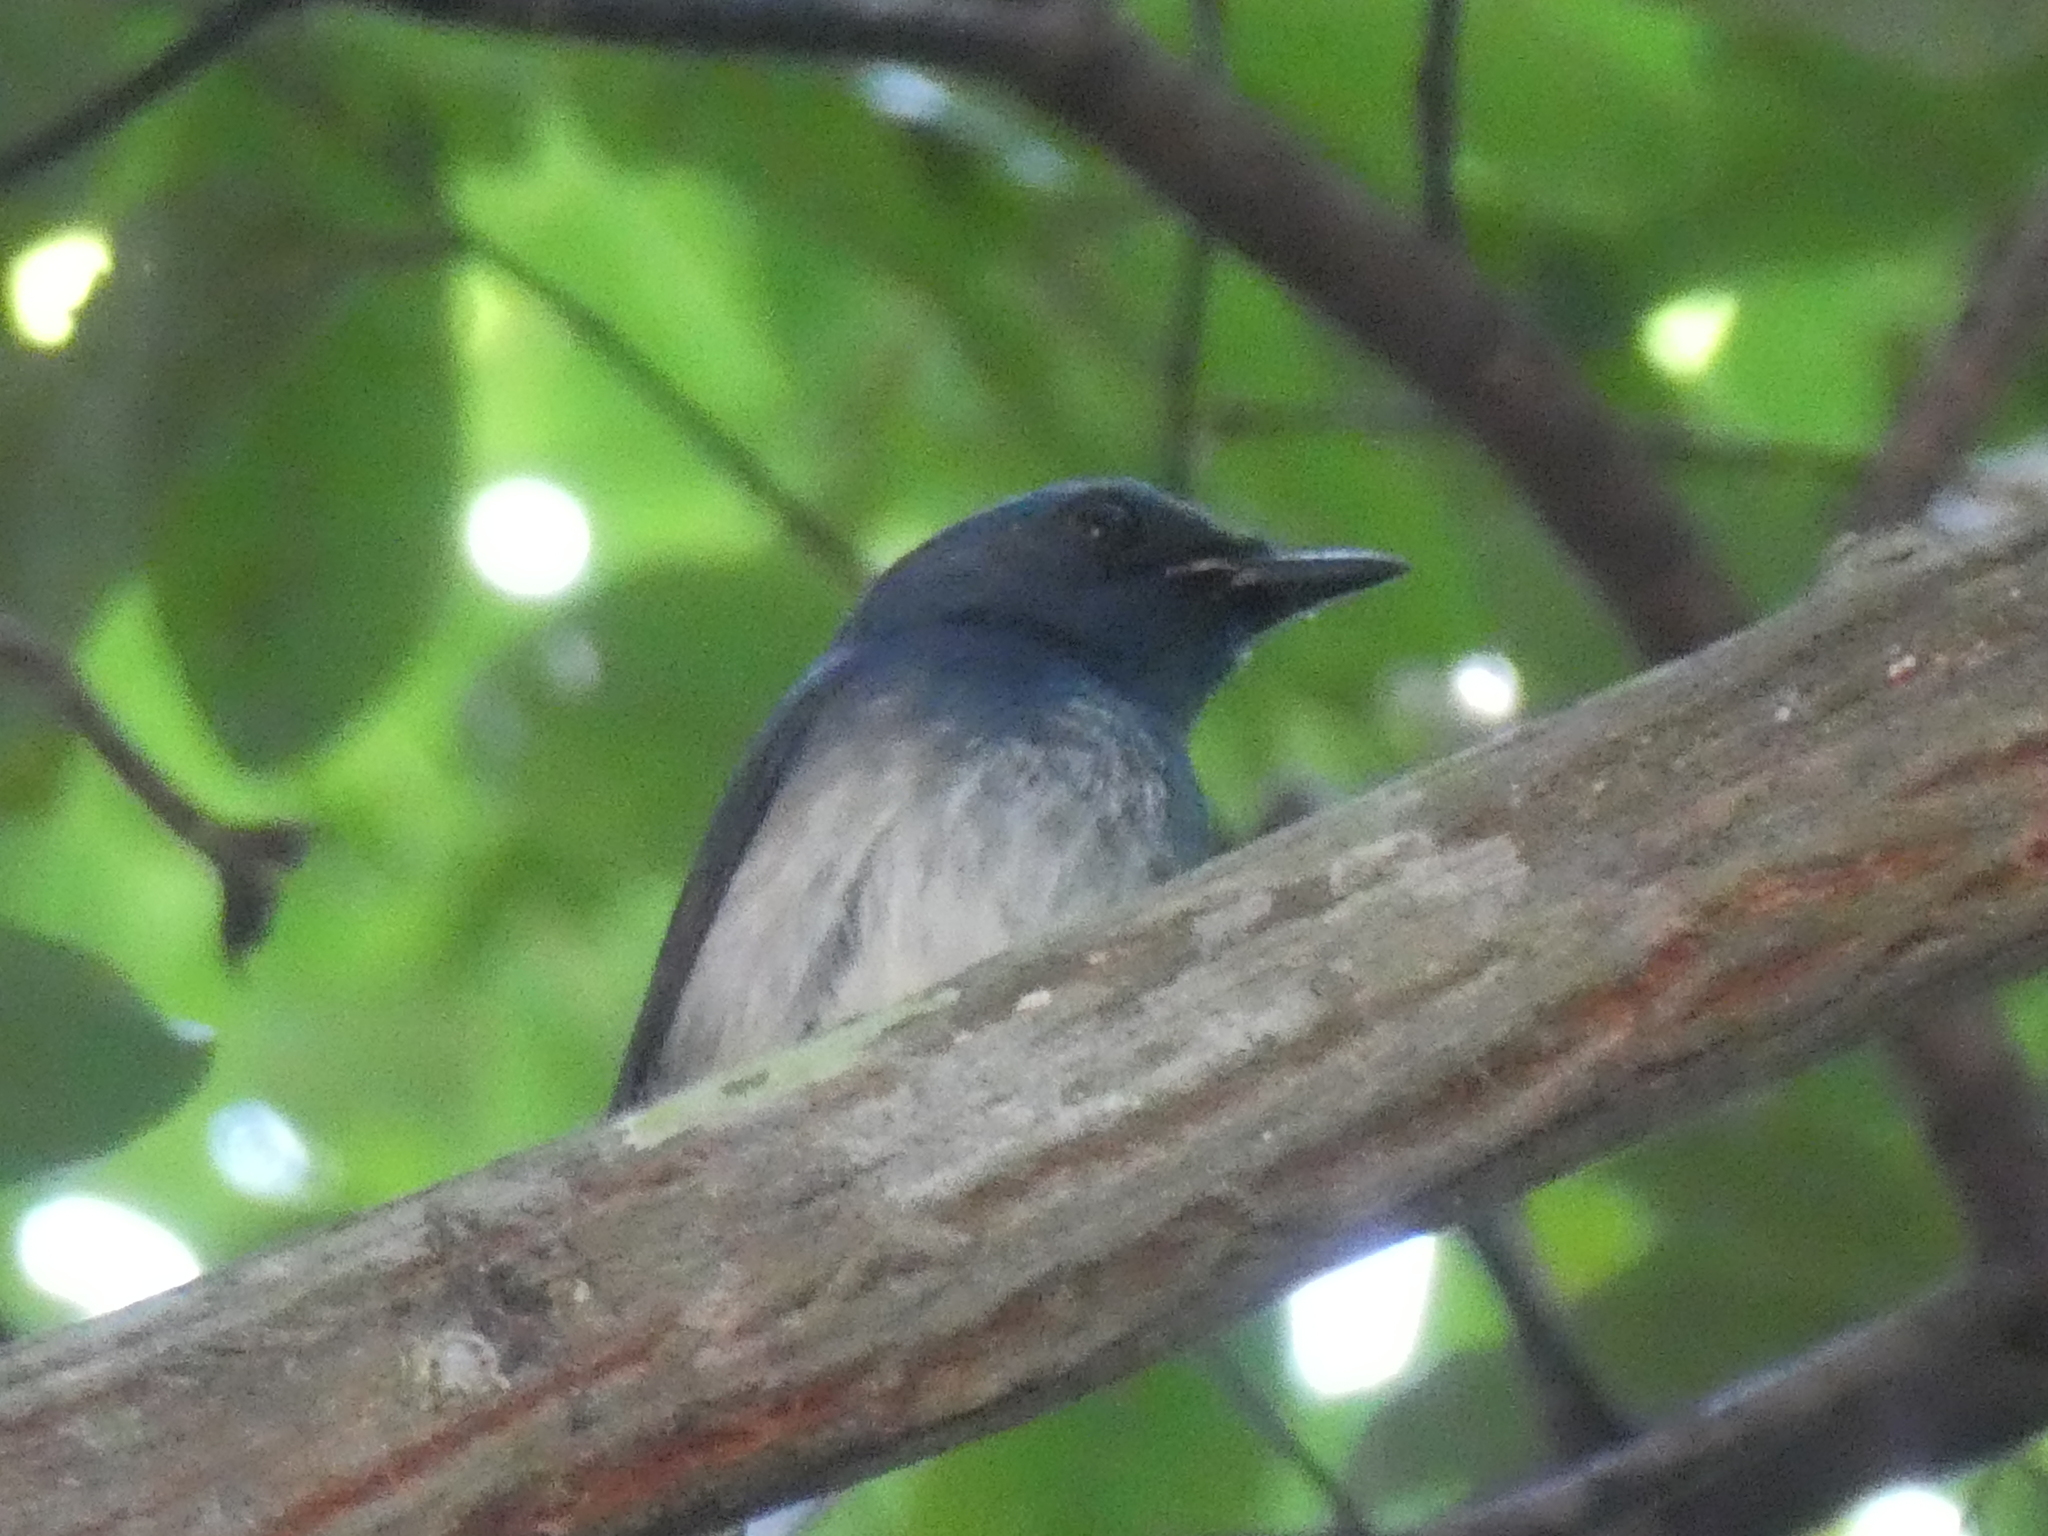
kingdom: Animalia
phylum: Chordata
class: Aves
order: Passeriformes
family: Muscicapidae
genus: Cyornis
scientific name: Cyornis hainanus
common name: Hainan blue flycatcher
